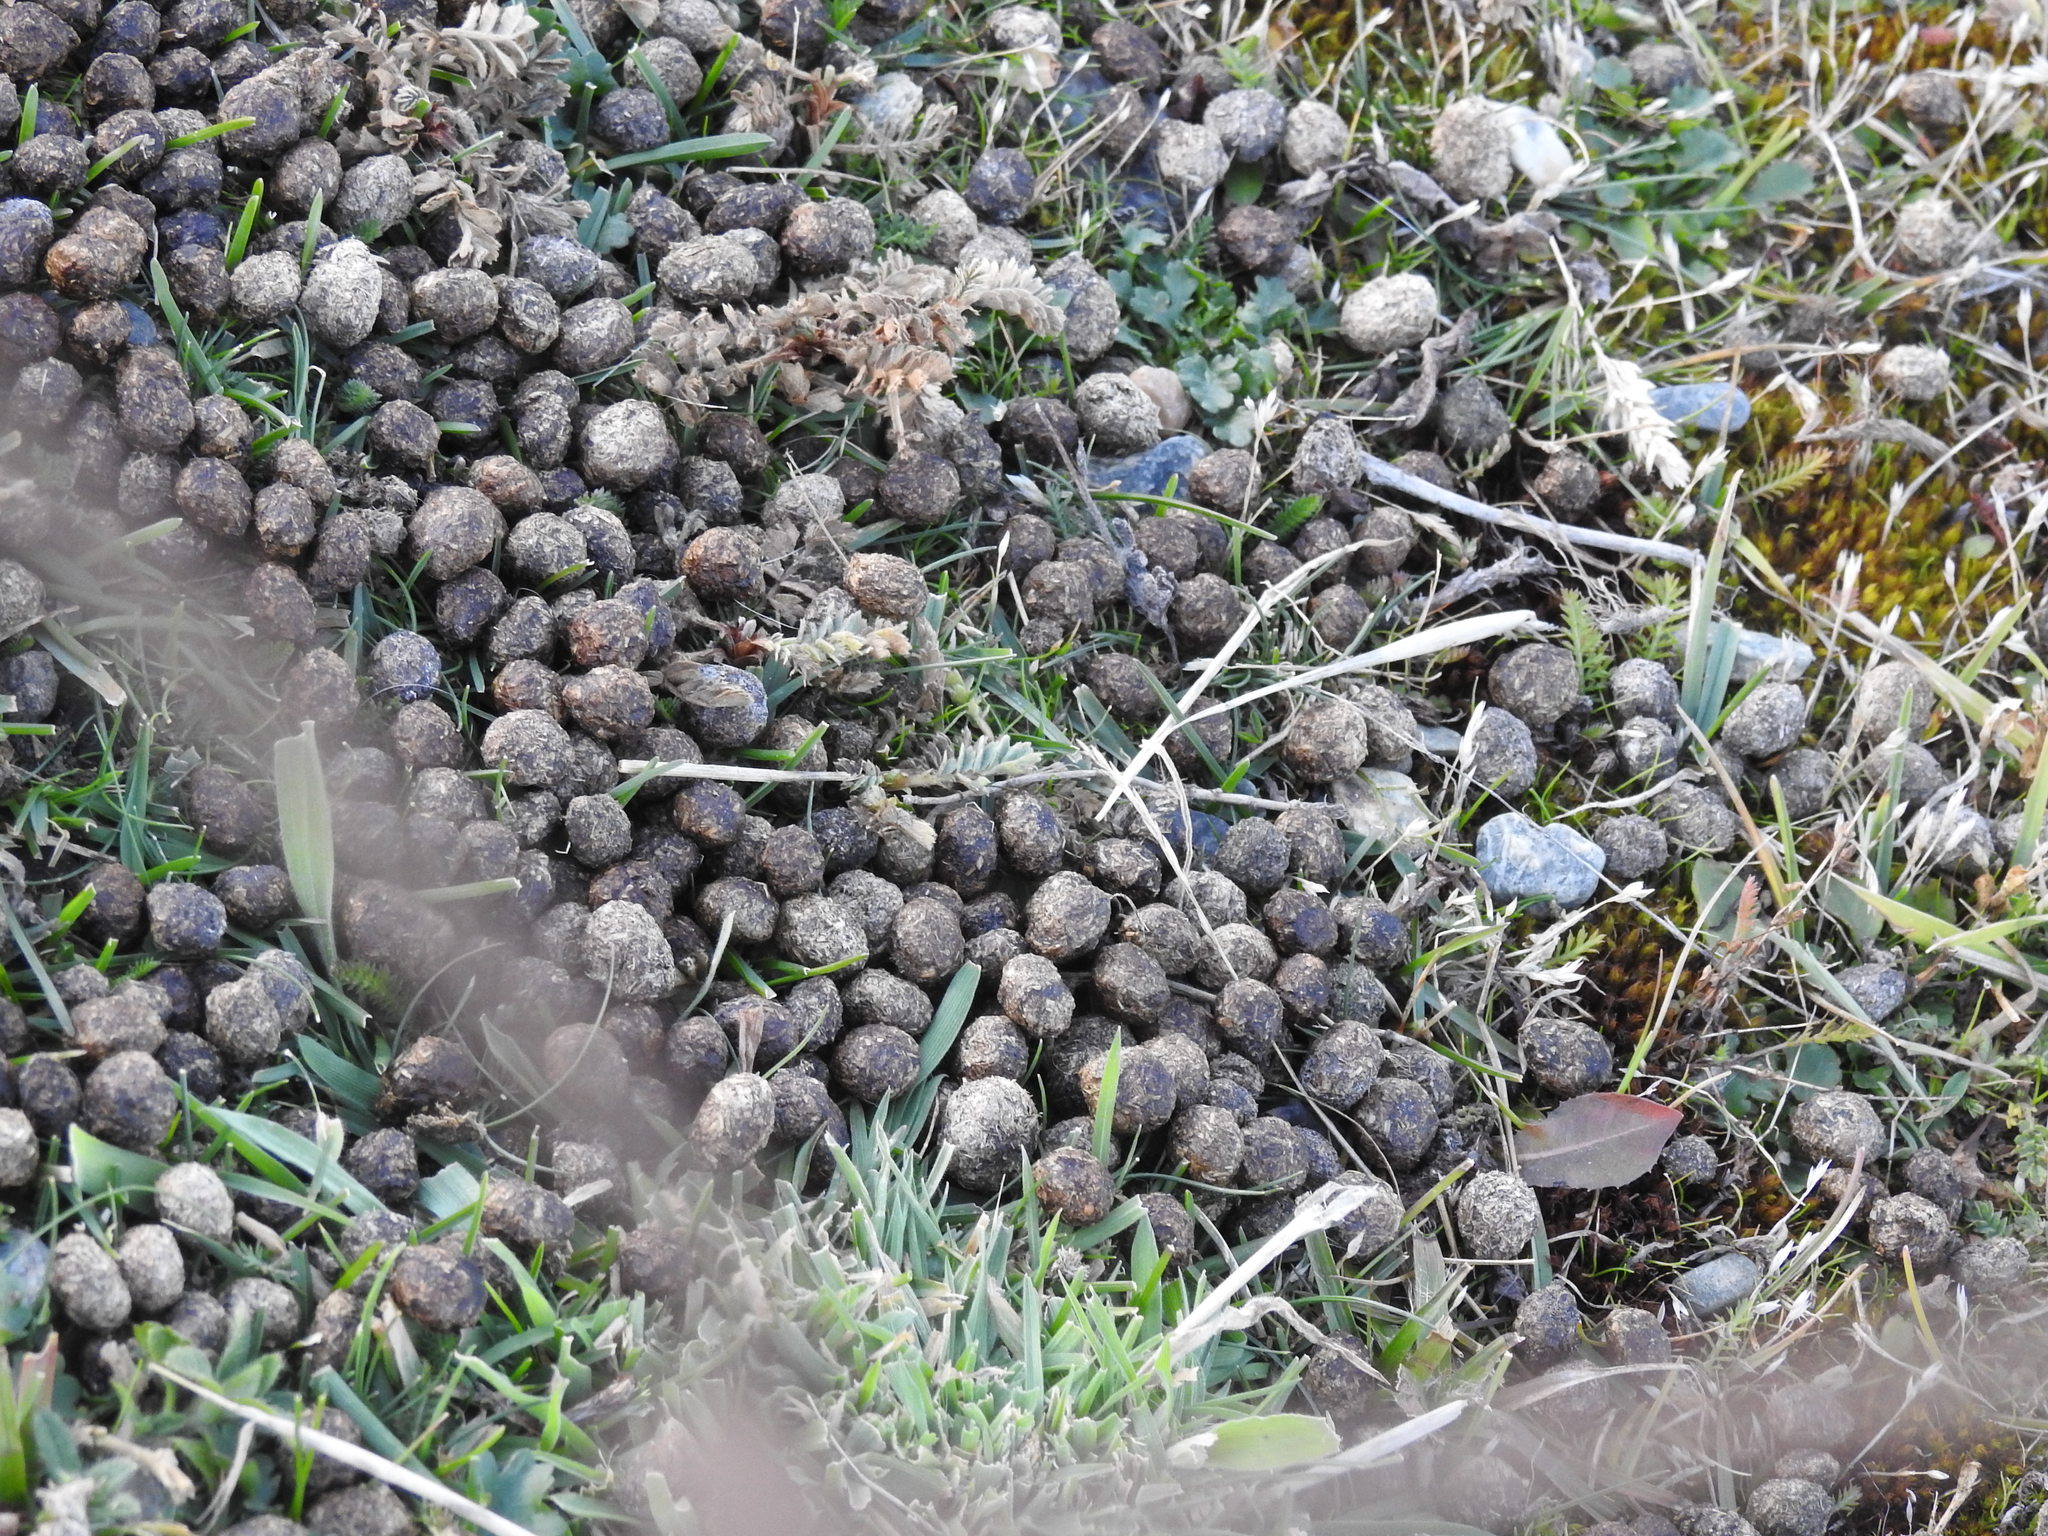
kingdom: Animalia
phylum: Chordata
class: Mammalia
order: Lagomorpha
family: Leporidae
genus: Oryctolagus
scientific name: Oryctolagus cuniculus
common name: European rabbit
